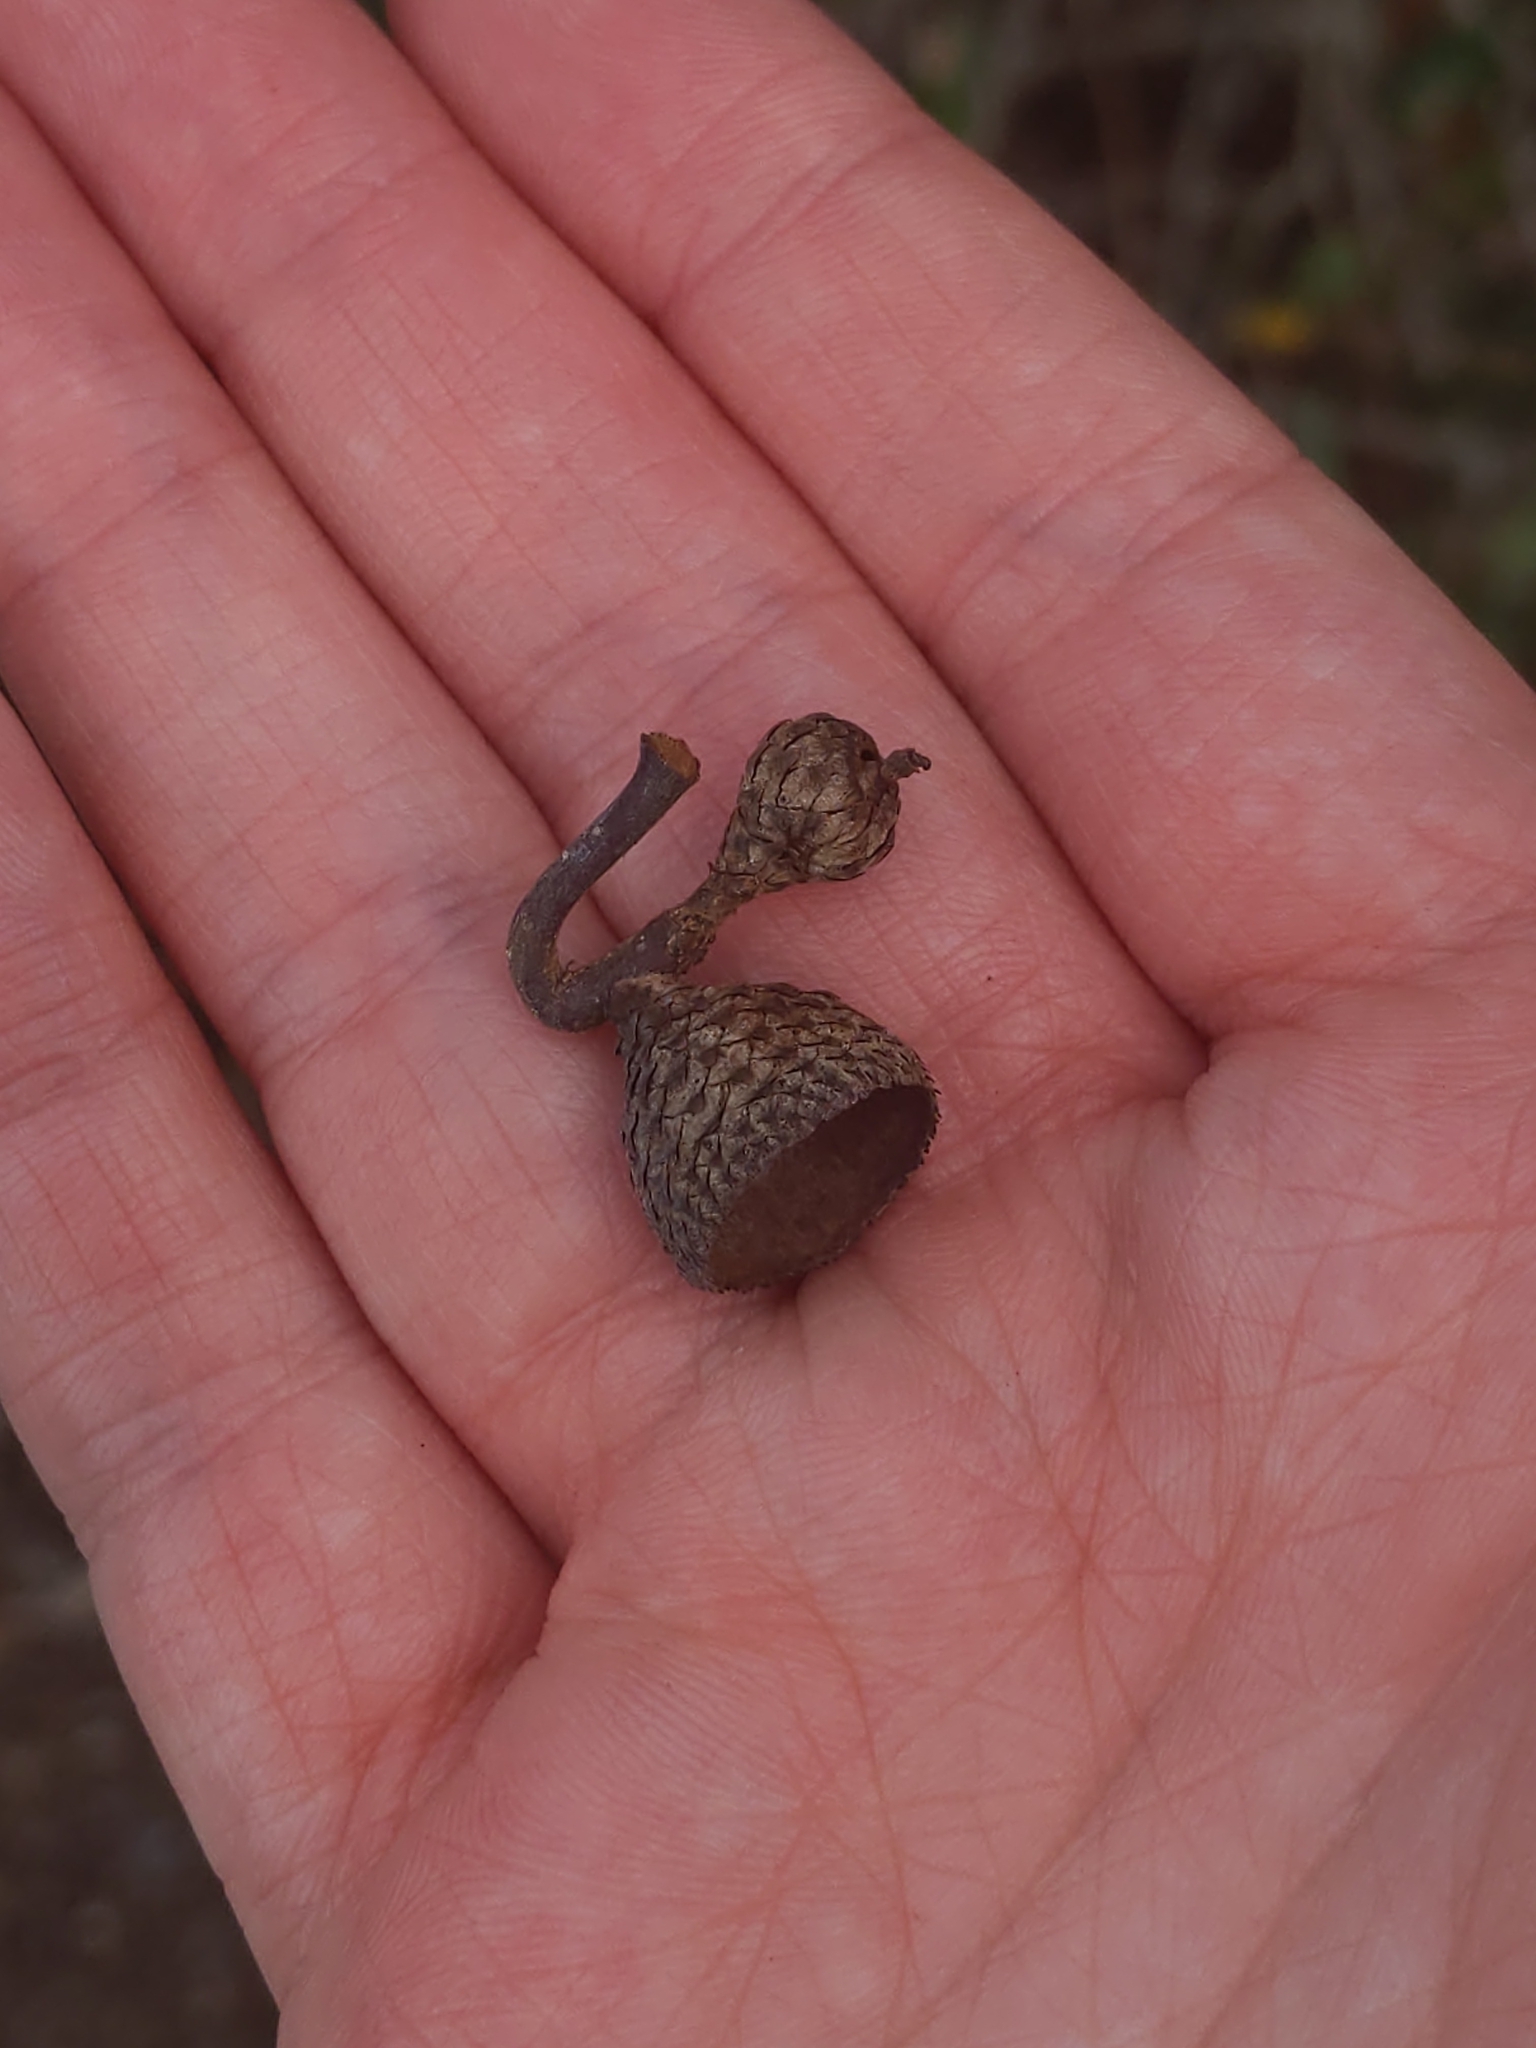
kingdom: Plantae
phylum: Tracheophyta
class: Magnoliopsida
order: Fagales
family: Fagaceae
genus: Quercus
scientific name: Quercus geminata
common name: Sand live oak
